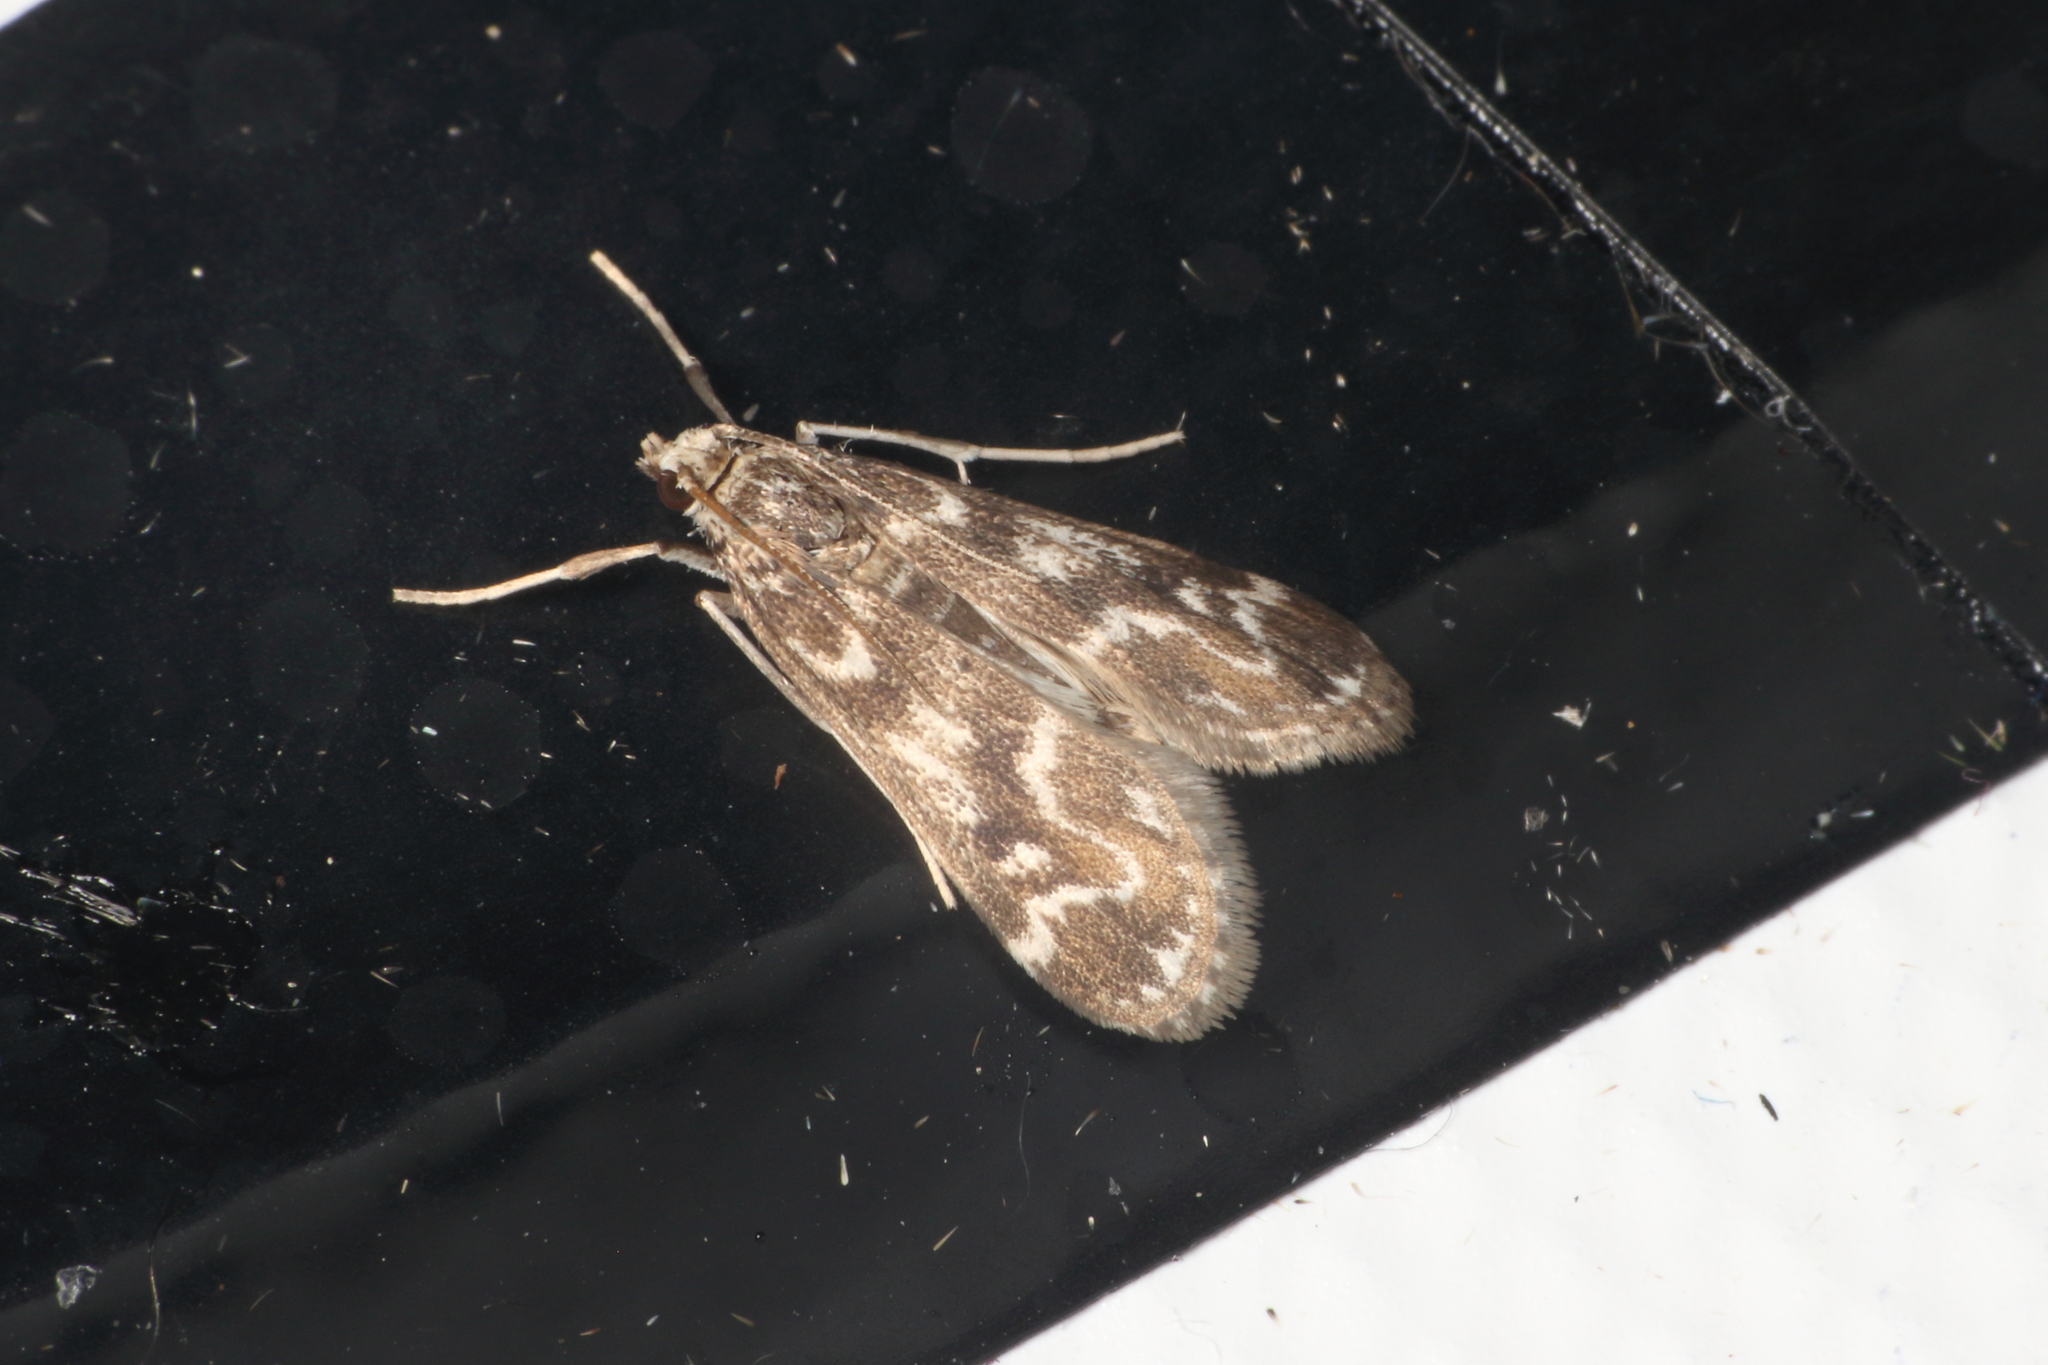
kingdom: Animalia
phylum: Arthropoda
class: Insecta
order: Lepidoptera
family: Crambidae
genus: Hygraula
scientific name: Hygraula nitens
